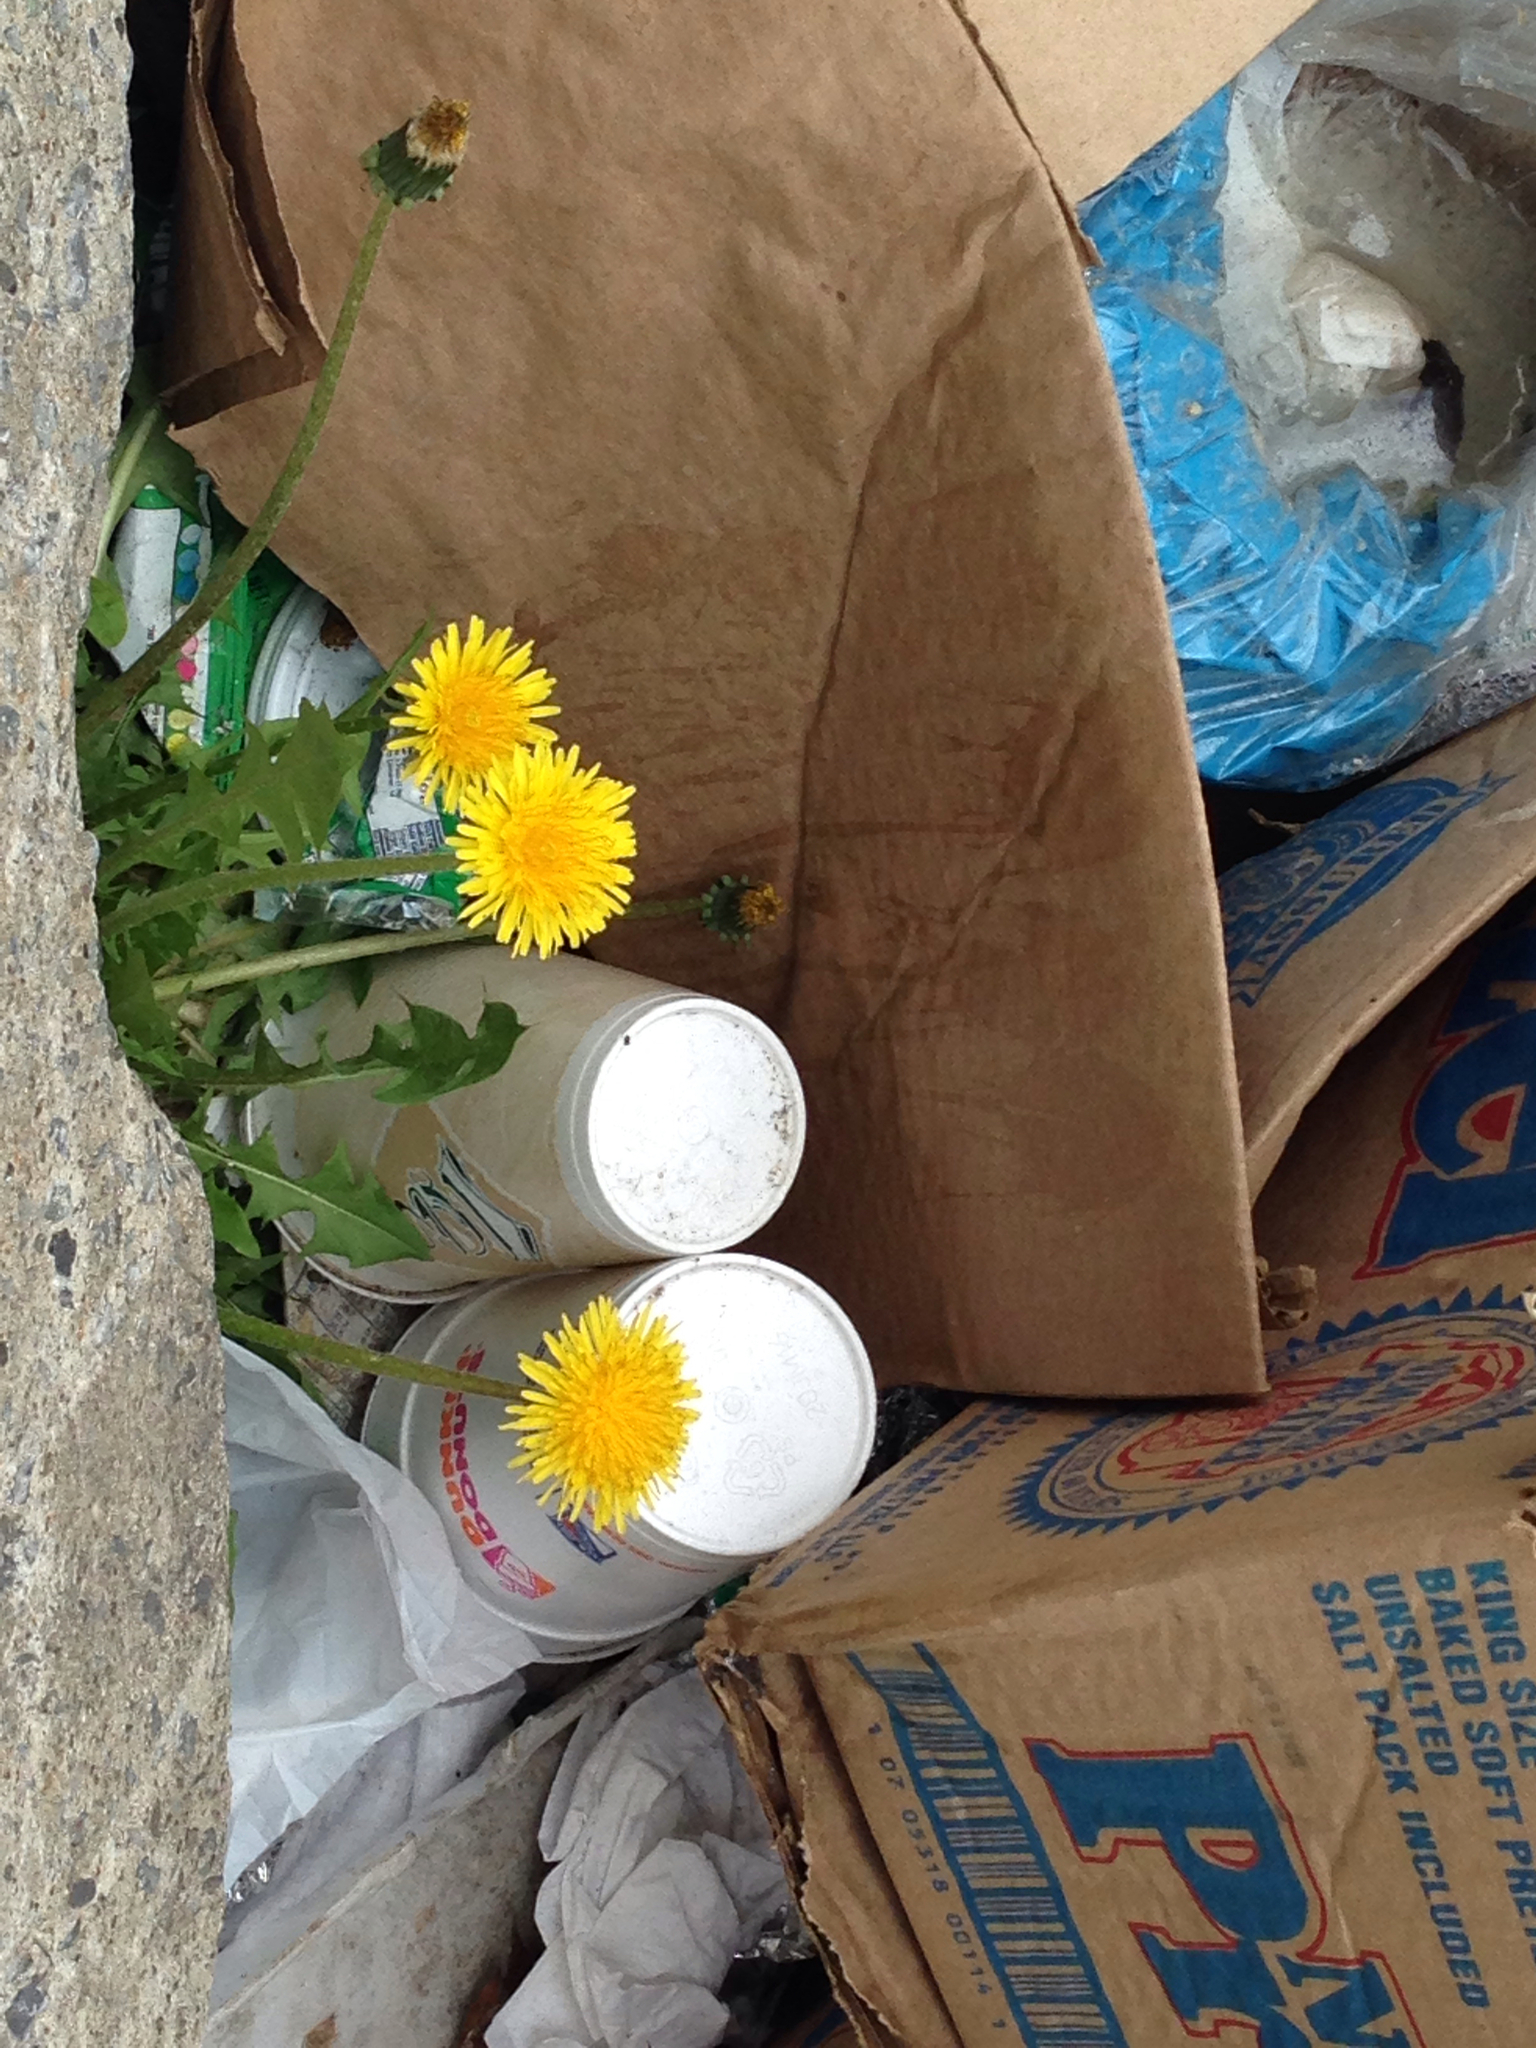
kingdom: Plantae
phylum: Tracheophyta
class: Magnoliopsida
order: Asterales
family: Asteraceae
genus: Taraxacum
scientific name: Taraxacum officinale
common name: Common dandelion
